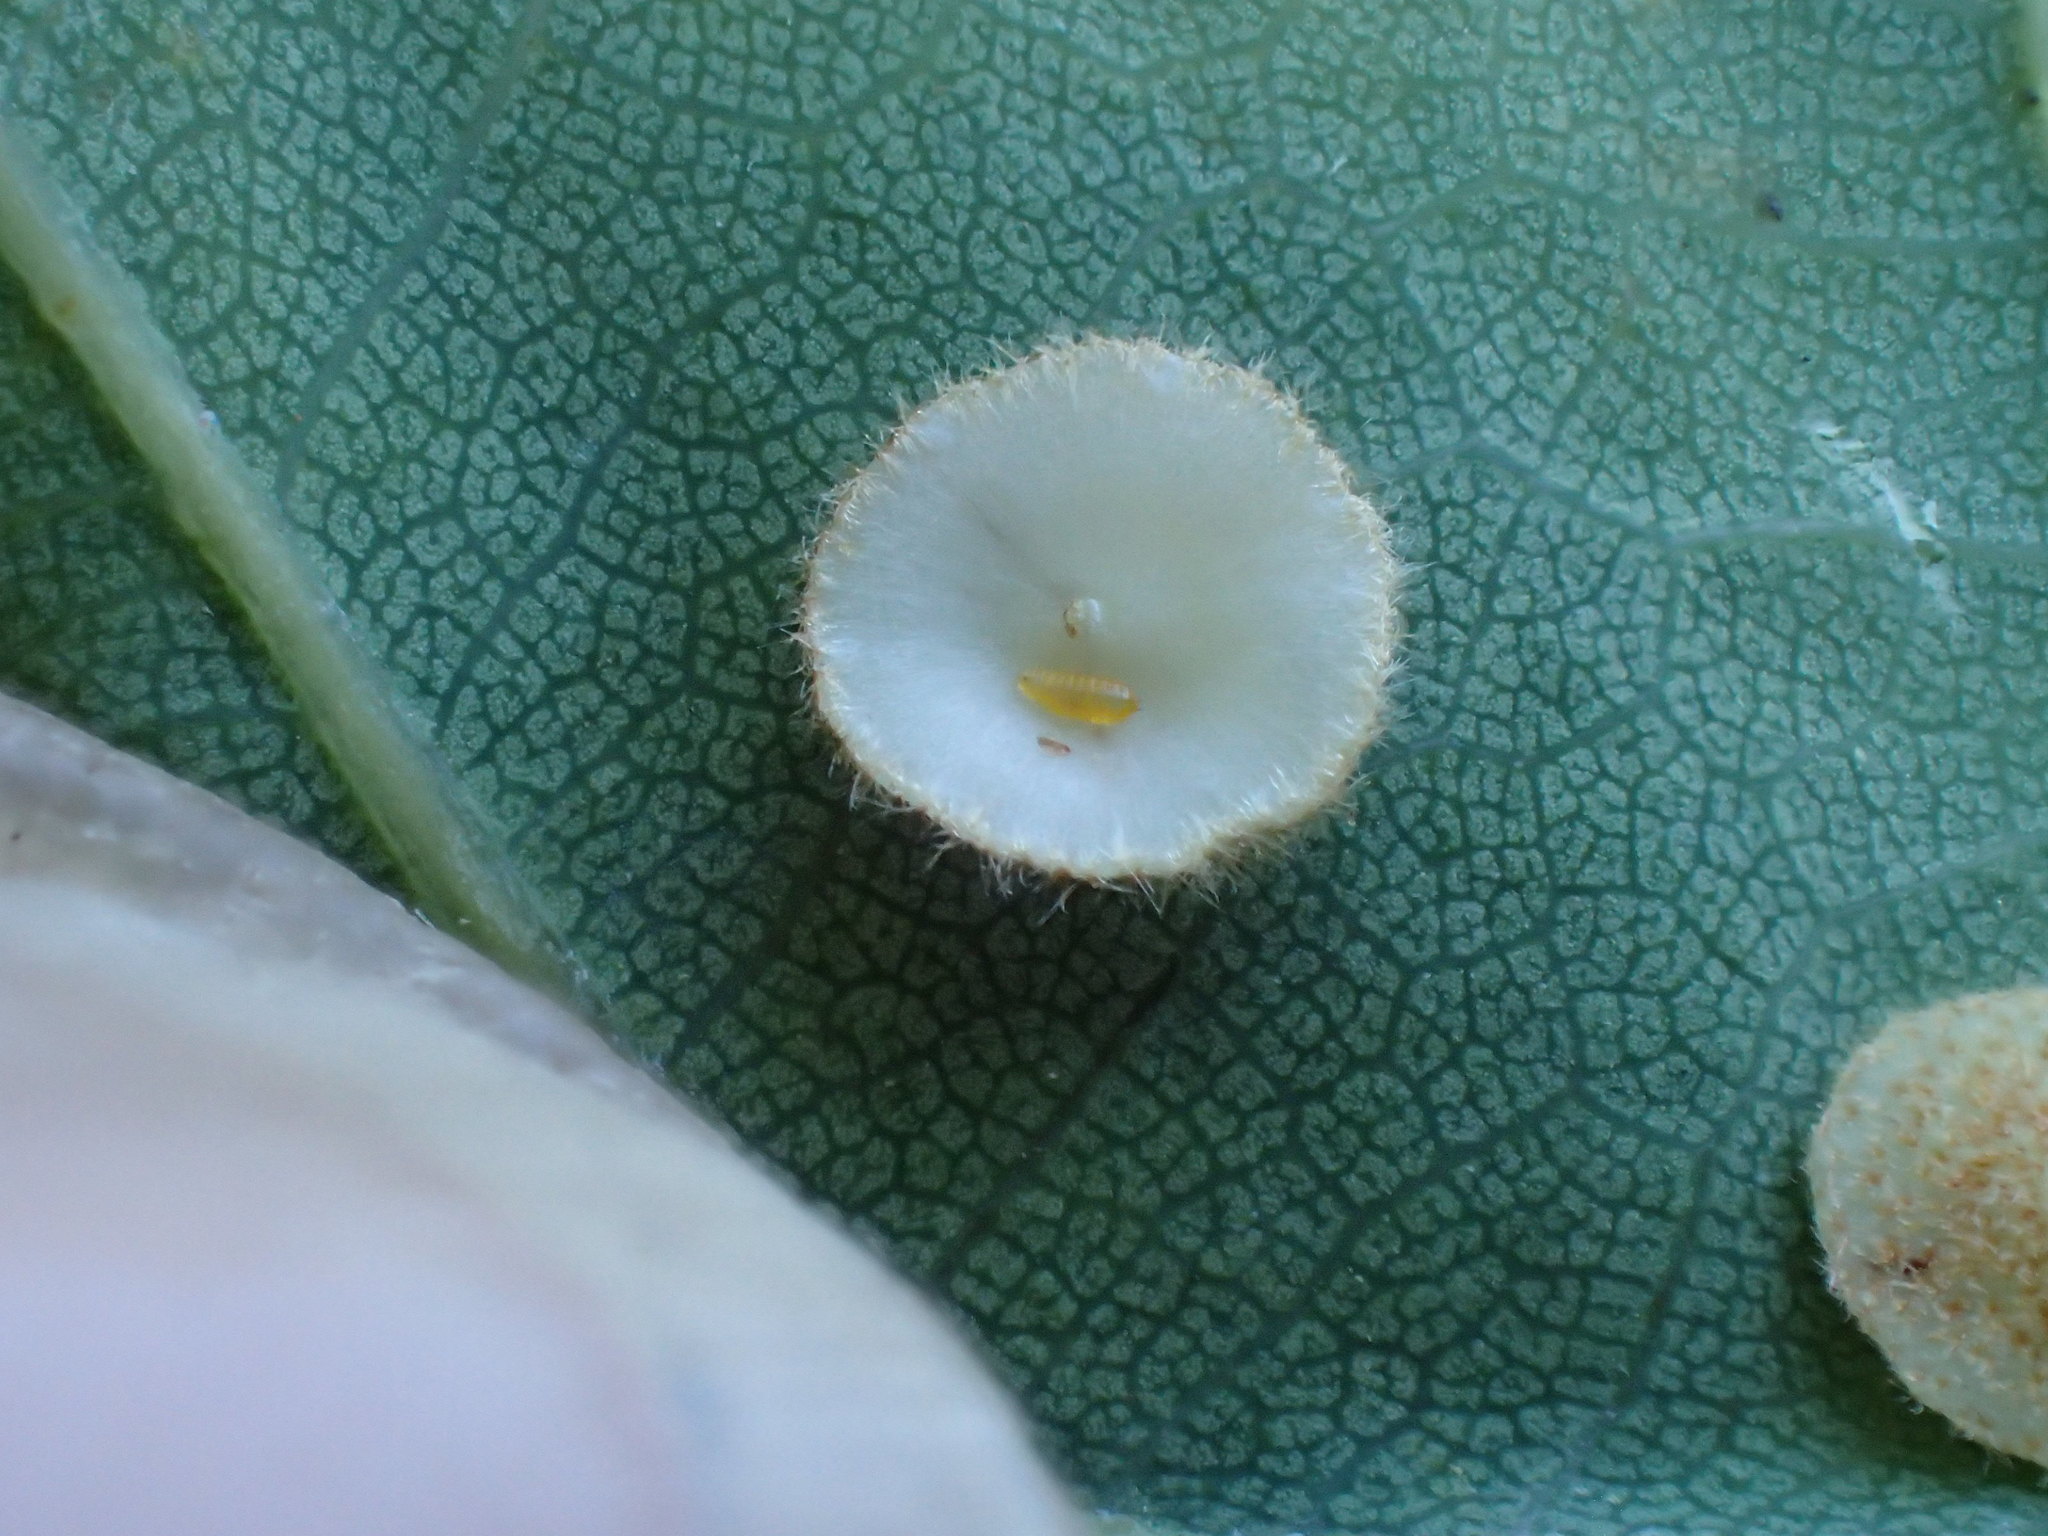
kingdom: Animalia
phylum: Arthropoda
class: Insecta
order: Diptera
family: Cecidomyiidae
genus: Parallelodiplosis
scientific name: Parallelodiplosis galliperda
